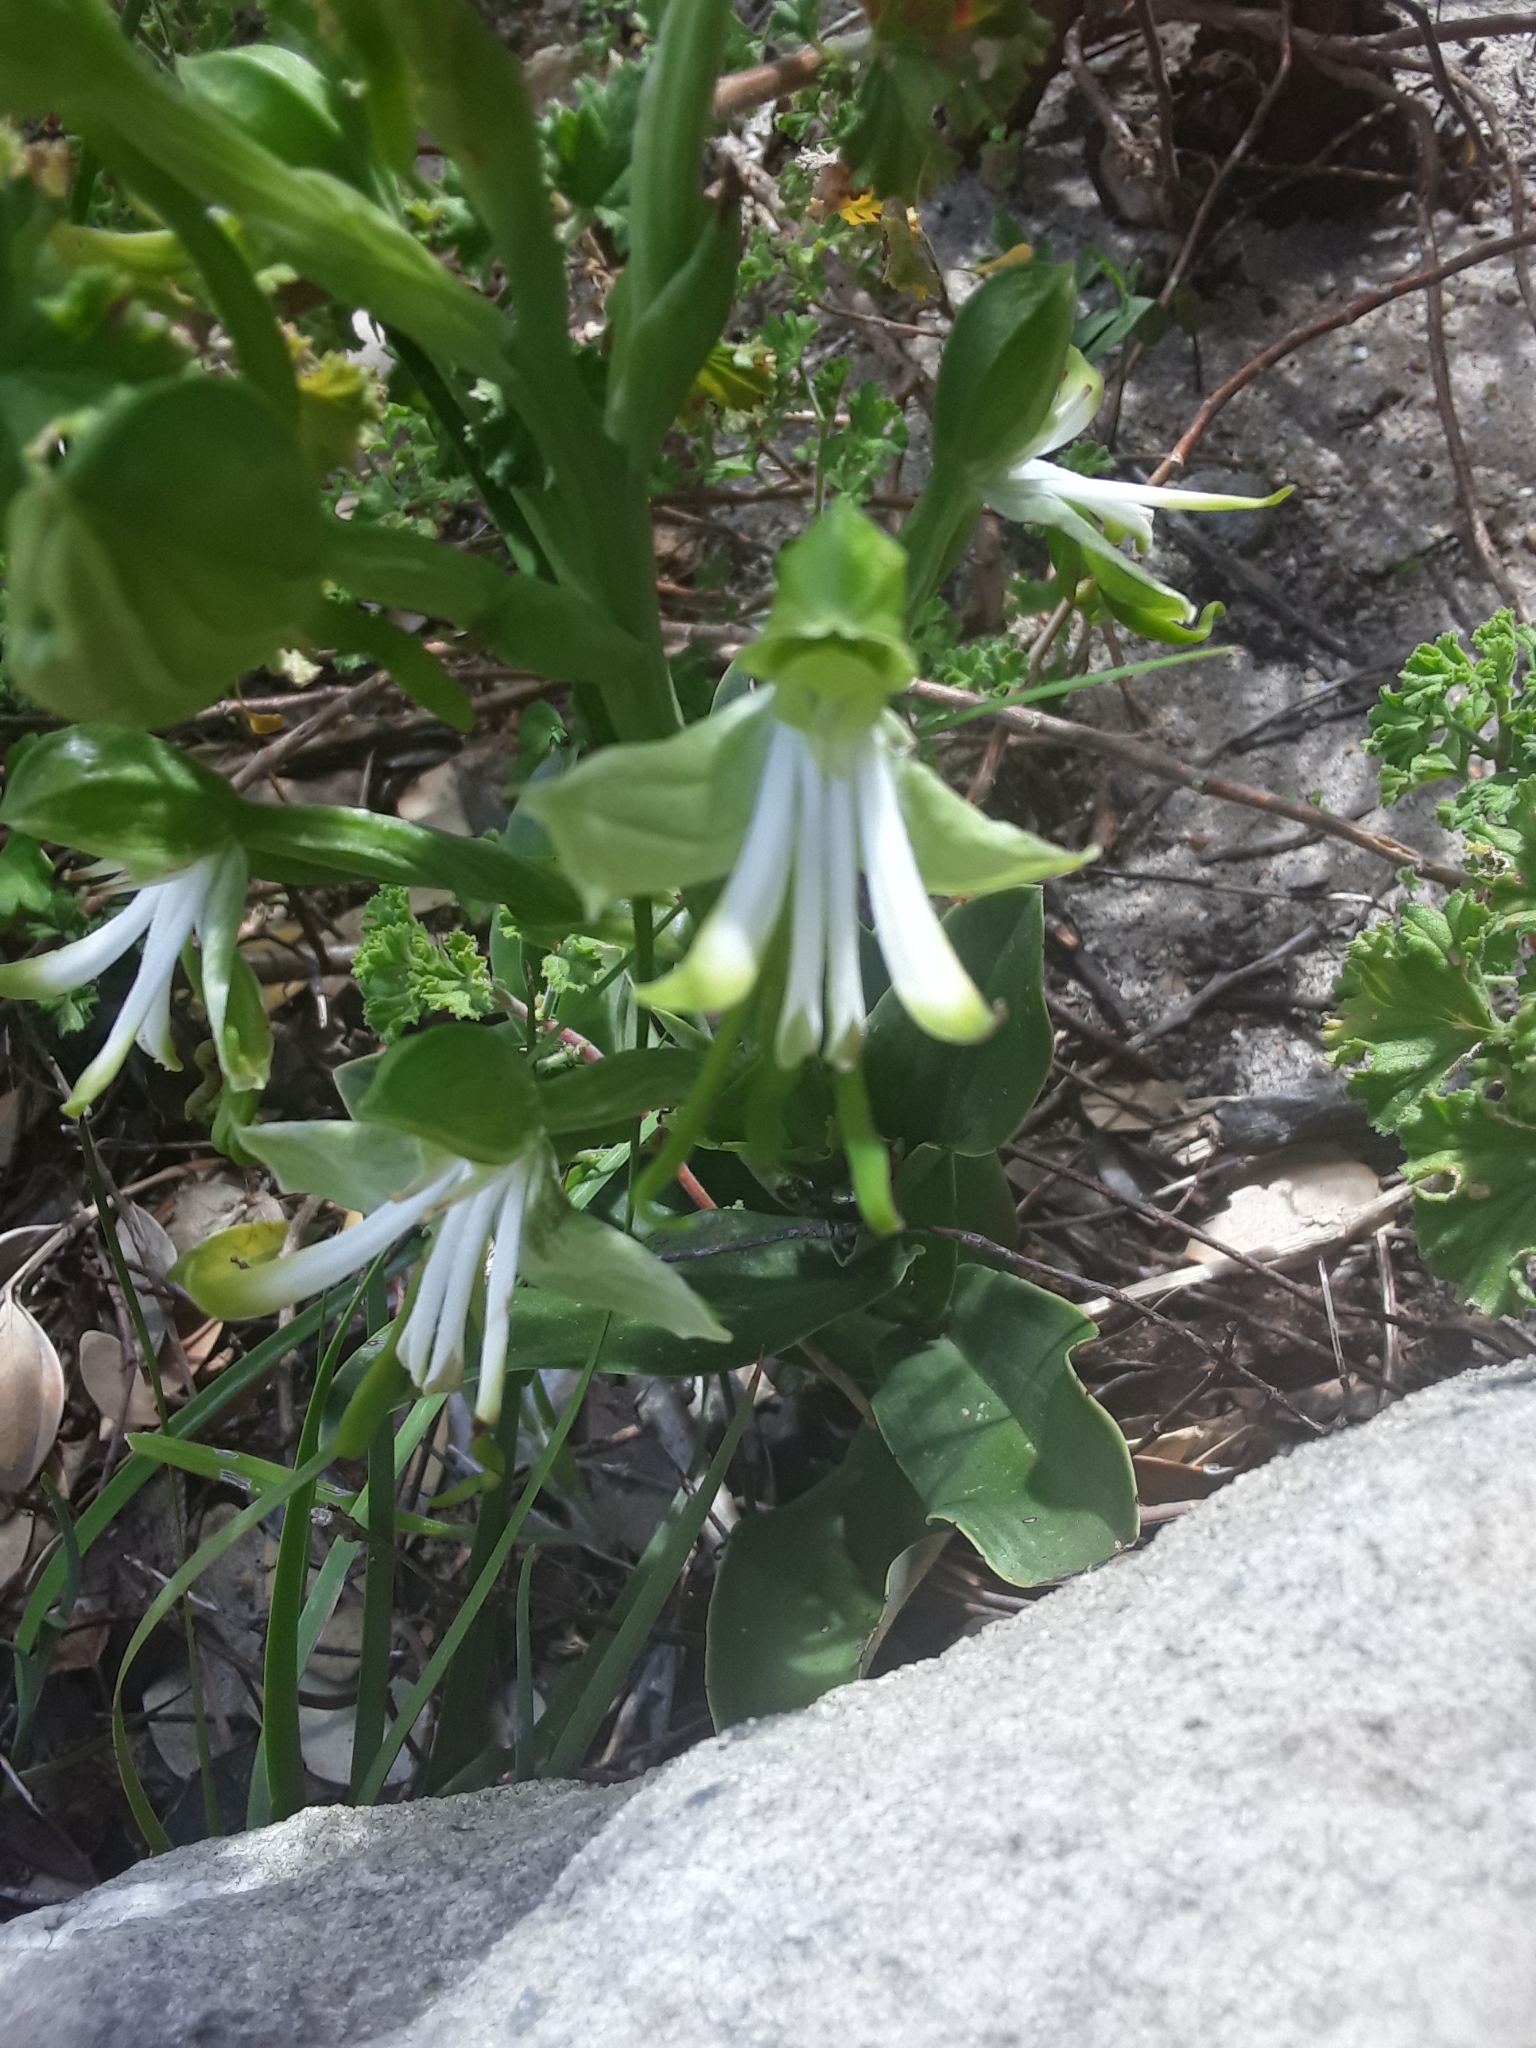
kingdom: Plantae
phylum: Tracheophyta
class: Liliopsida
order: Asparagales
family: Orchidaceae
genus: Bonatea
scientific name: Bonatea speciosa
